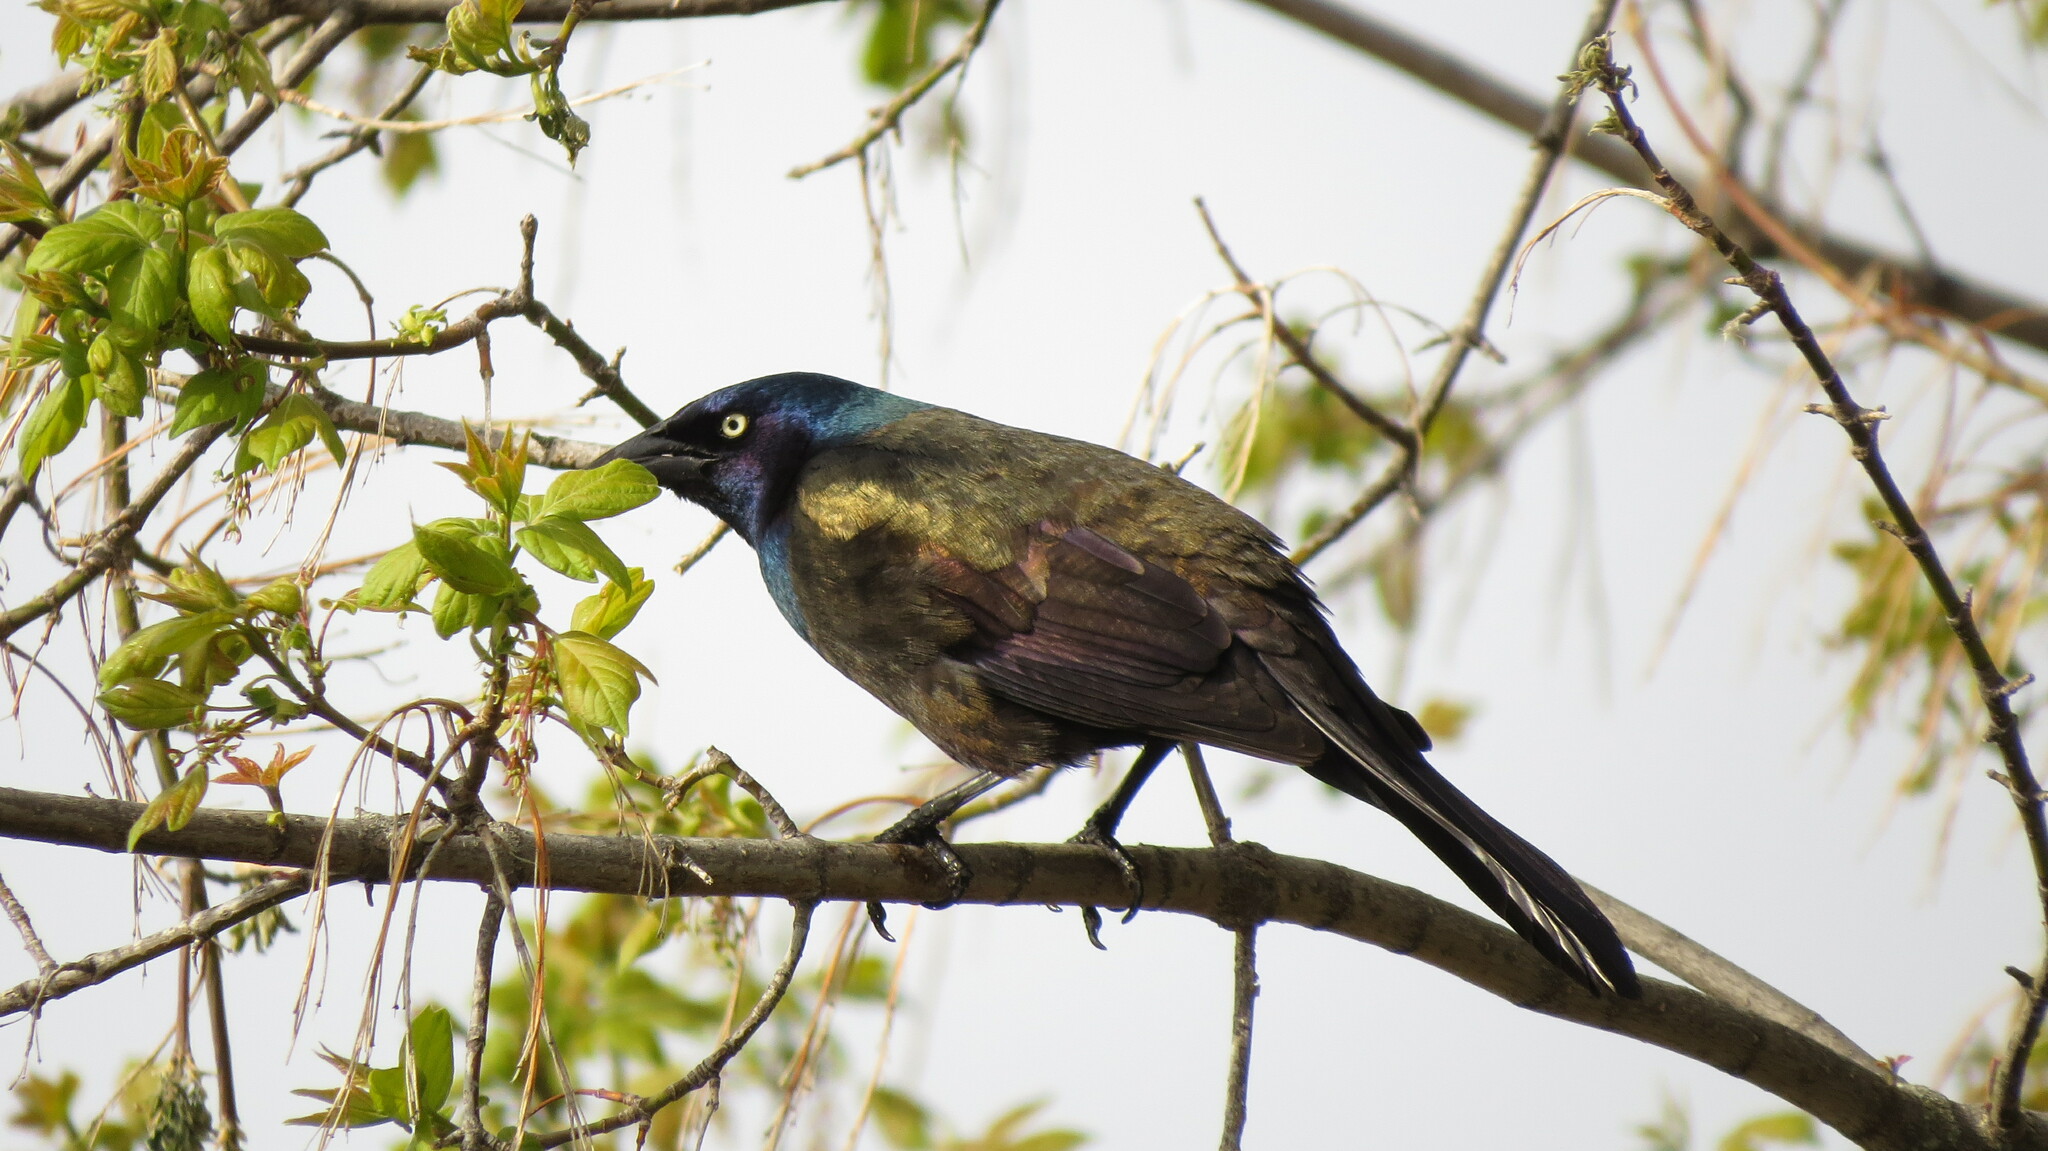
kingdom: Animalia
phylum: Chordata
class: Aves
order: Passeriformes
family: Icteridae
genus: Quiscalus
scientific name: Quiscalus quiscula
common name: Common grackle
